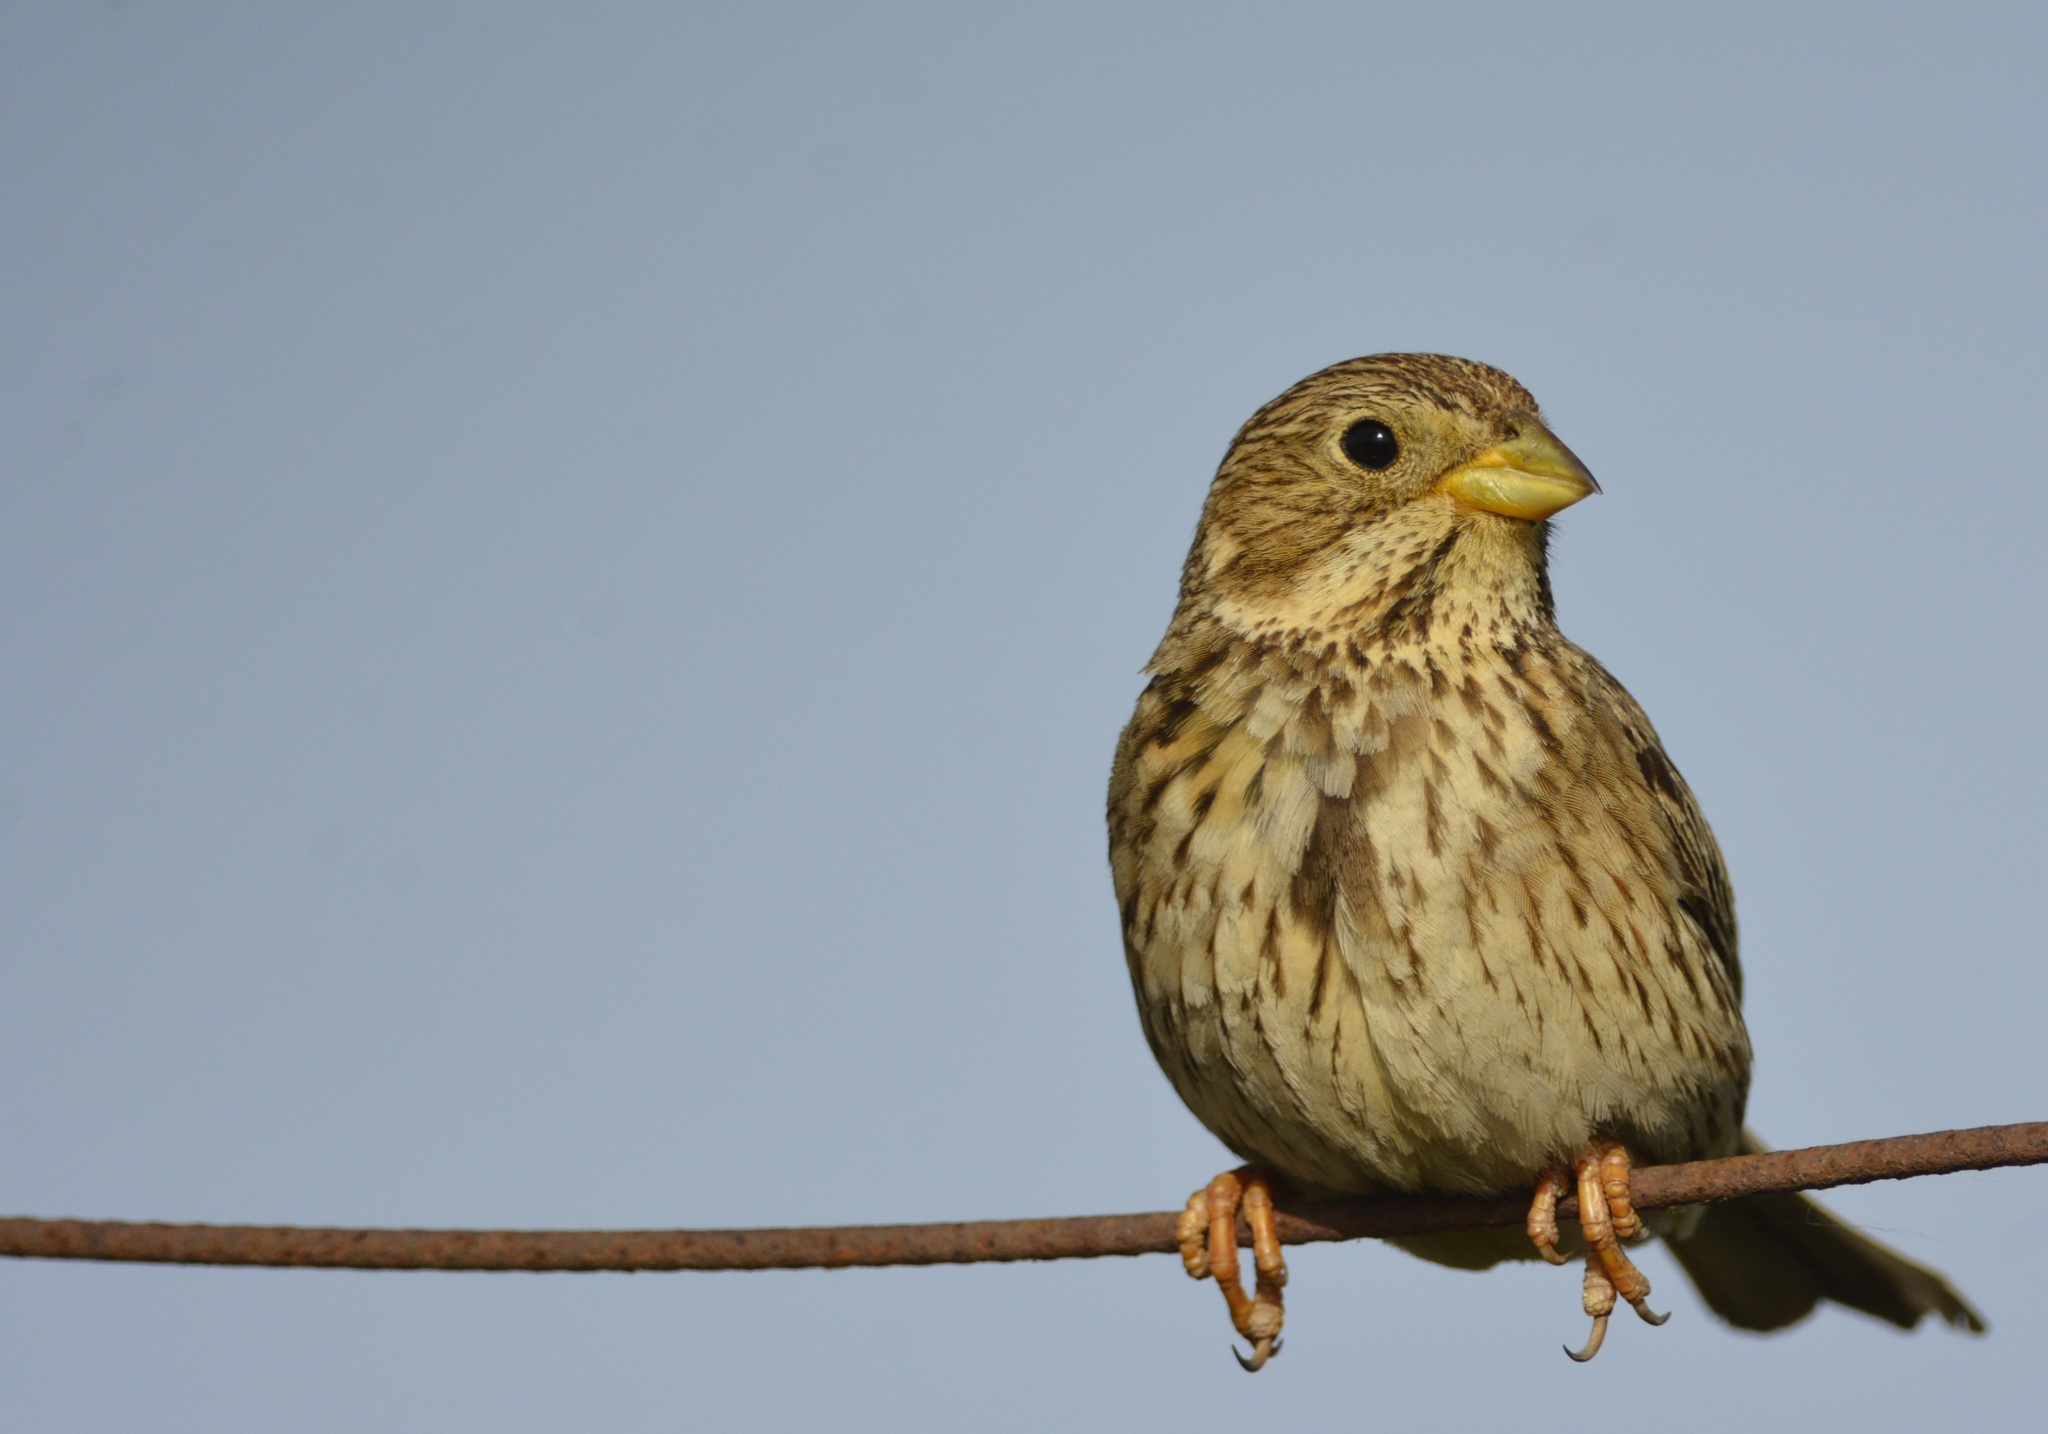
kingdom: Animalia
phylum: Chordata
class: Aves
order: Passeriformes
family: Emberizidae
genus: Emberiza
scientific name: Emberiza calandra
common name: Corn bunting
